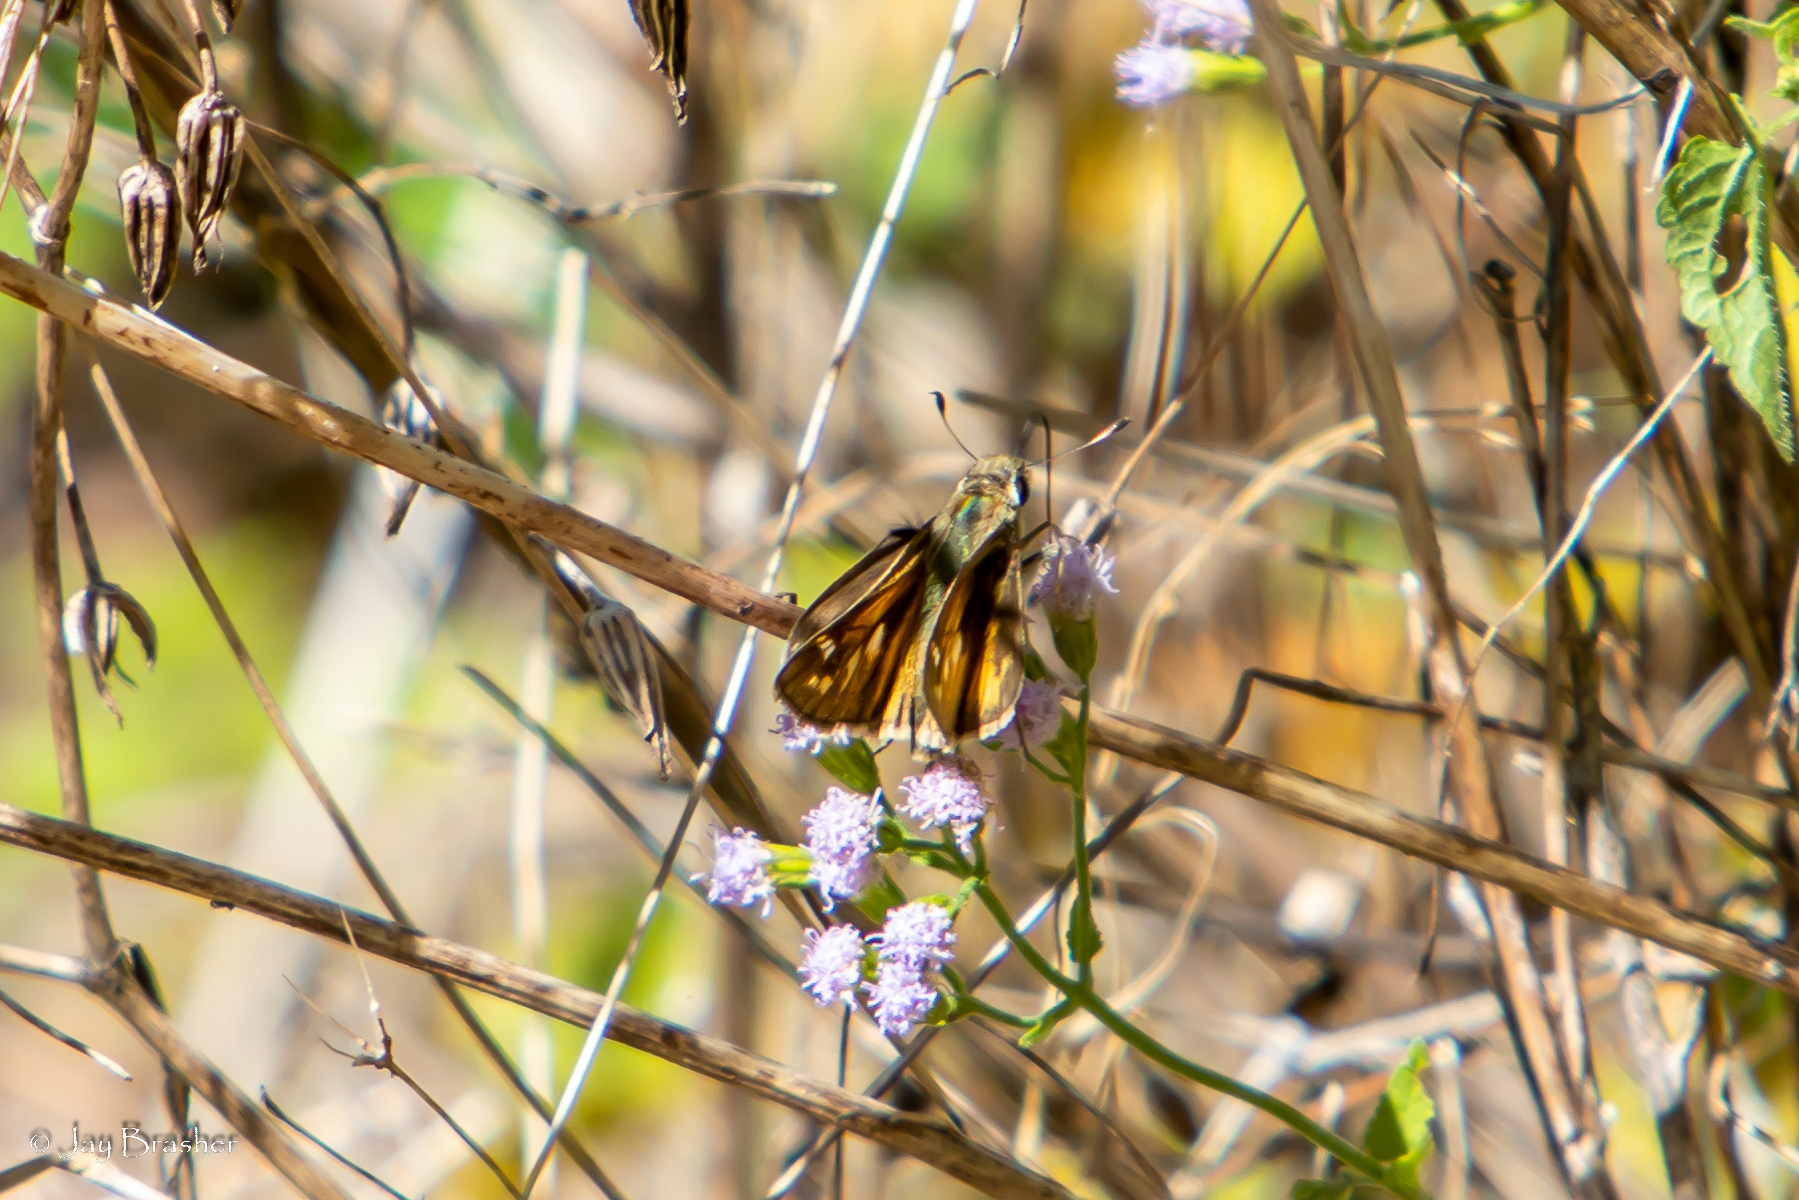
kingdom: Animalia
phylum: Arthropoda
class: Insecta
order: Lepidoptera
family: Hesperiidae
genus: Atalopedes
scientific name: Atalopedes
